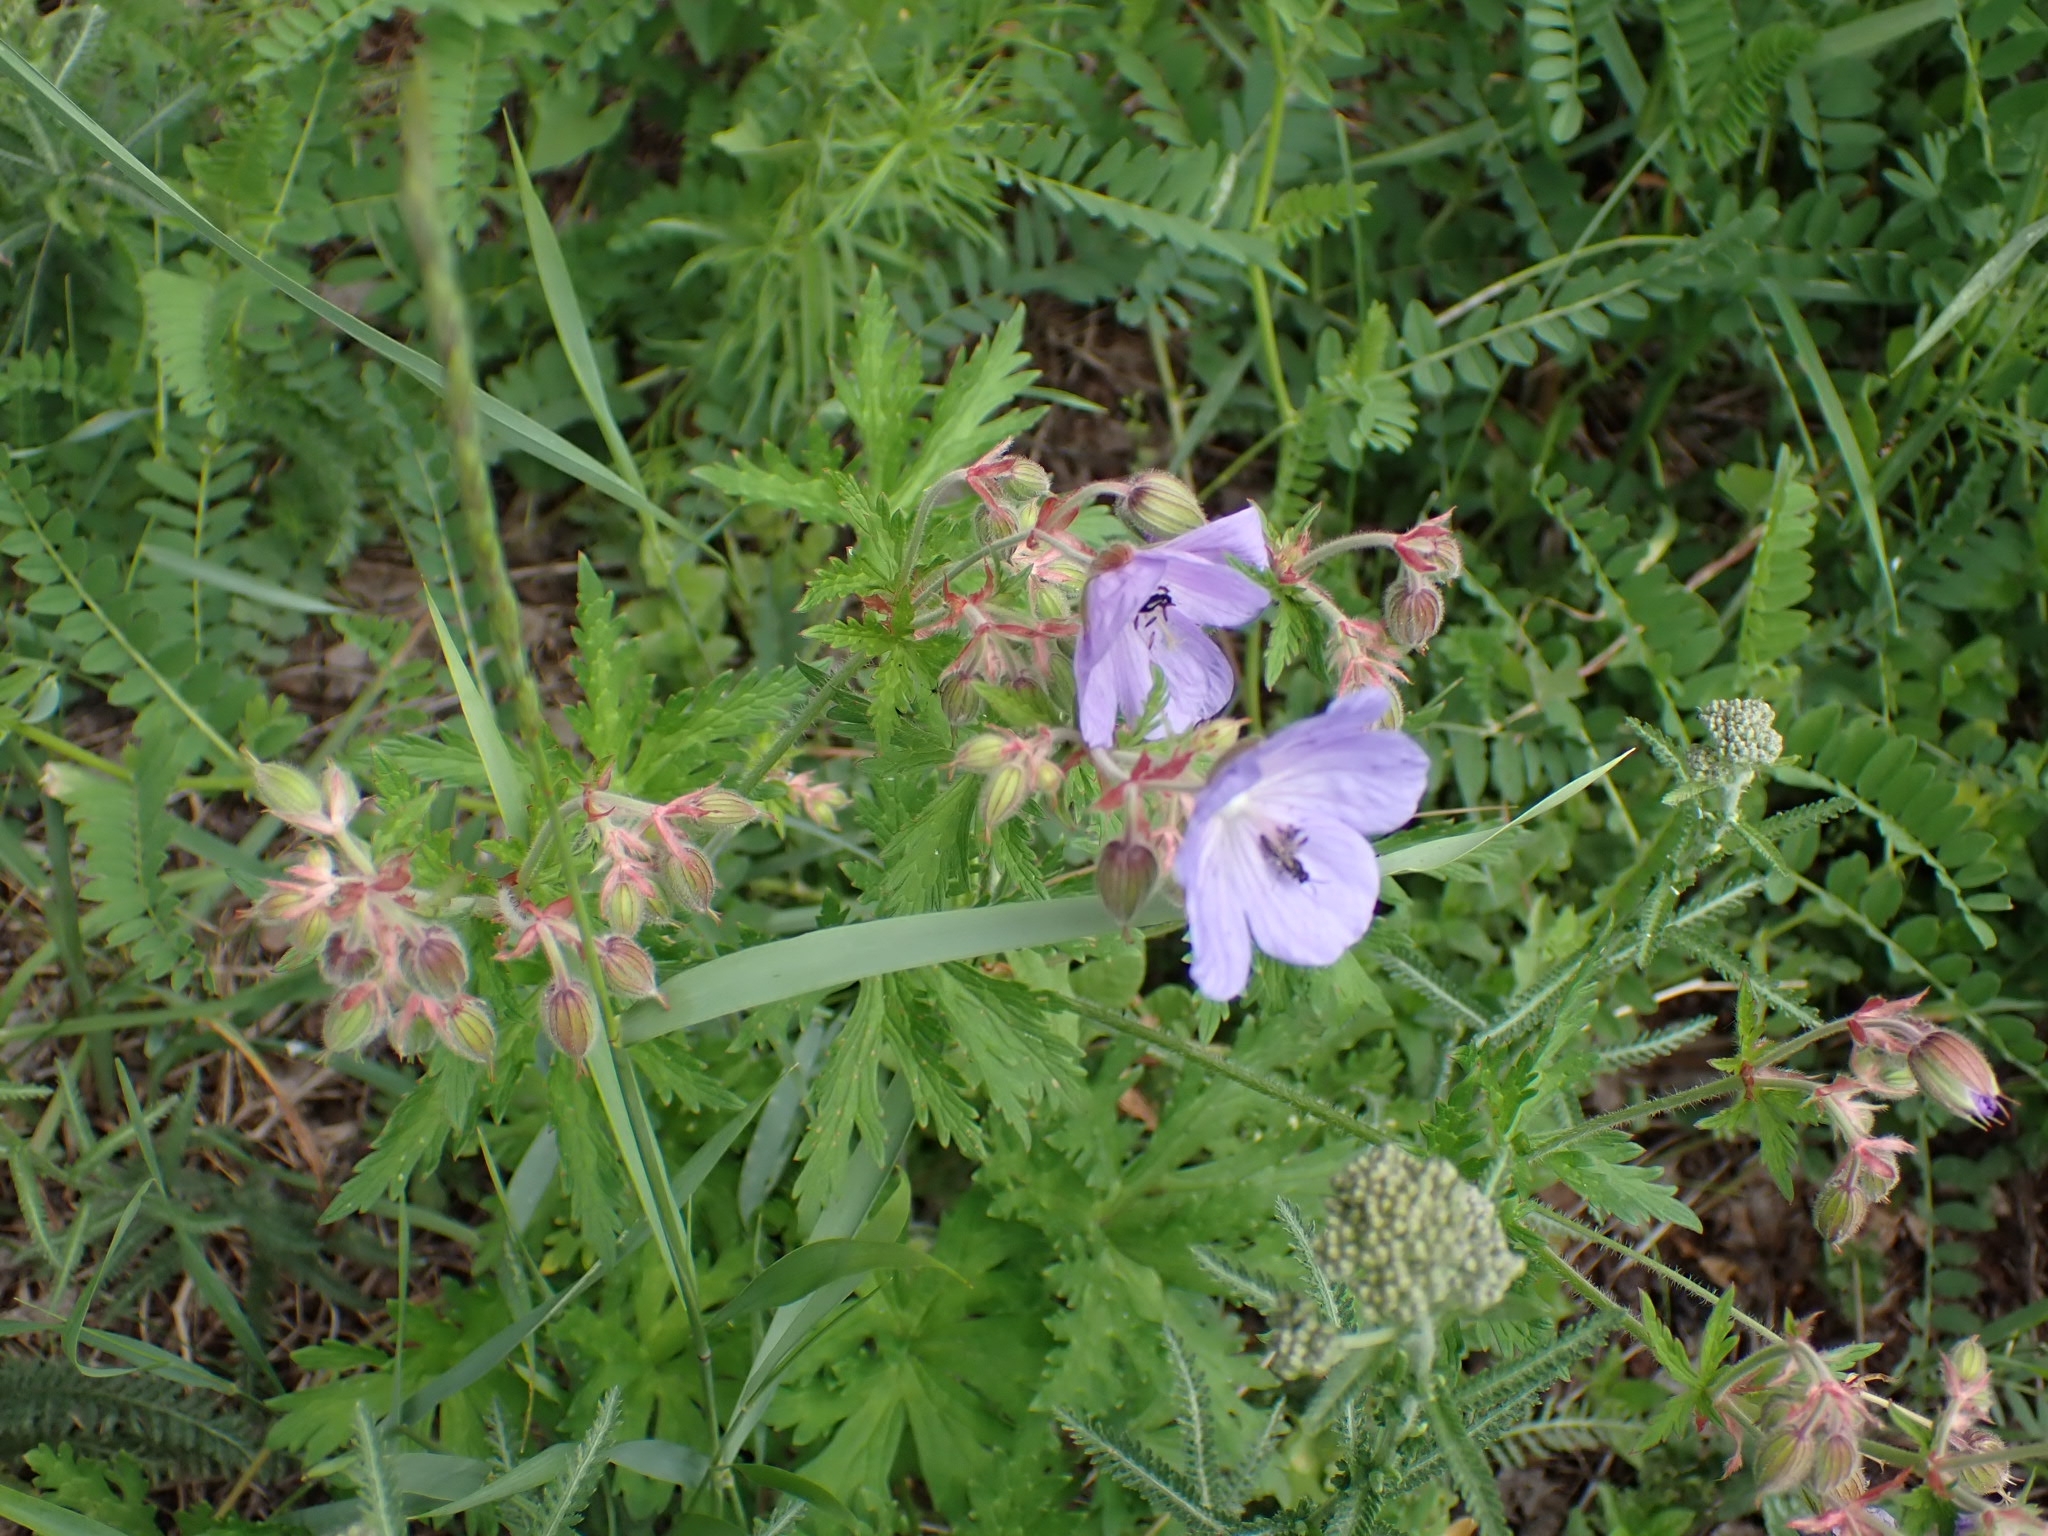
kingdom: Plantae
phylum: Tracheophyta
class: Magnoliopsida
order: Geraniales
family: Geraniaceae
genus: Geranium
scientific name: Geranium pratense
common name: Meadow crane's-bill
